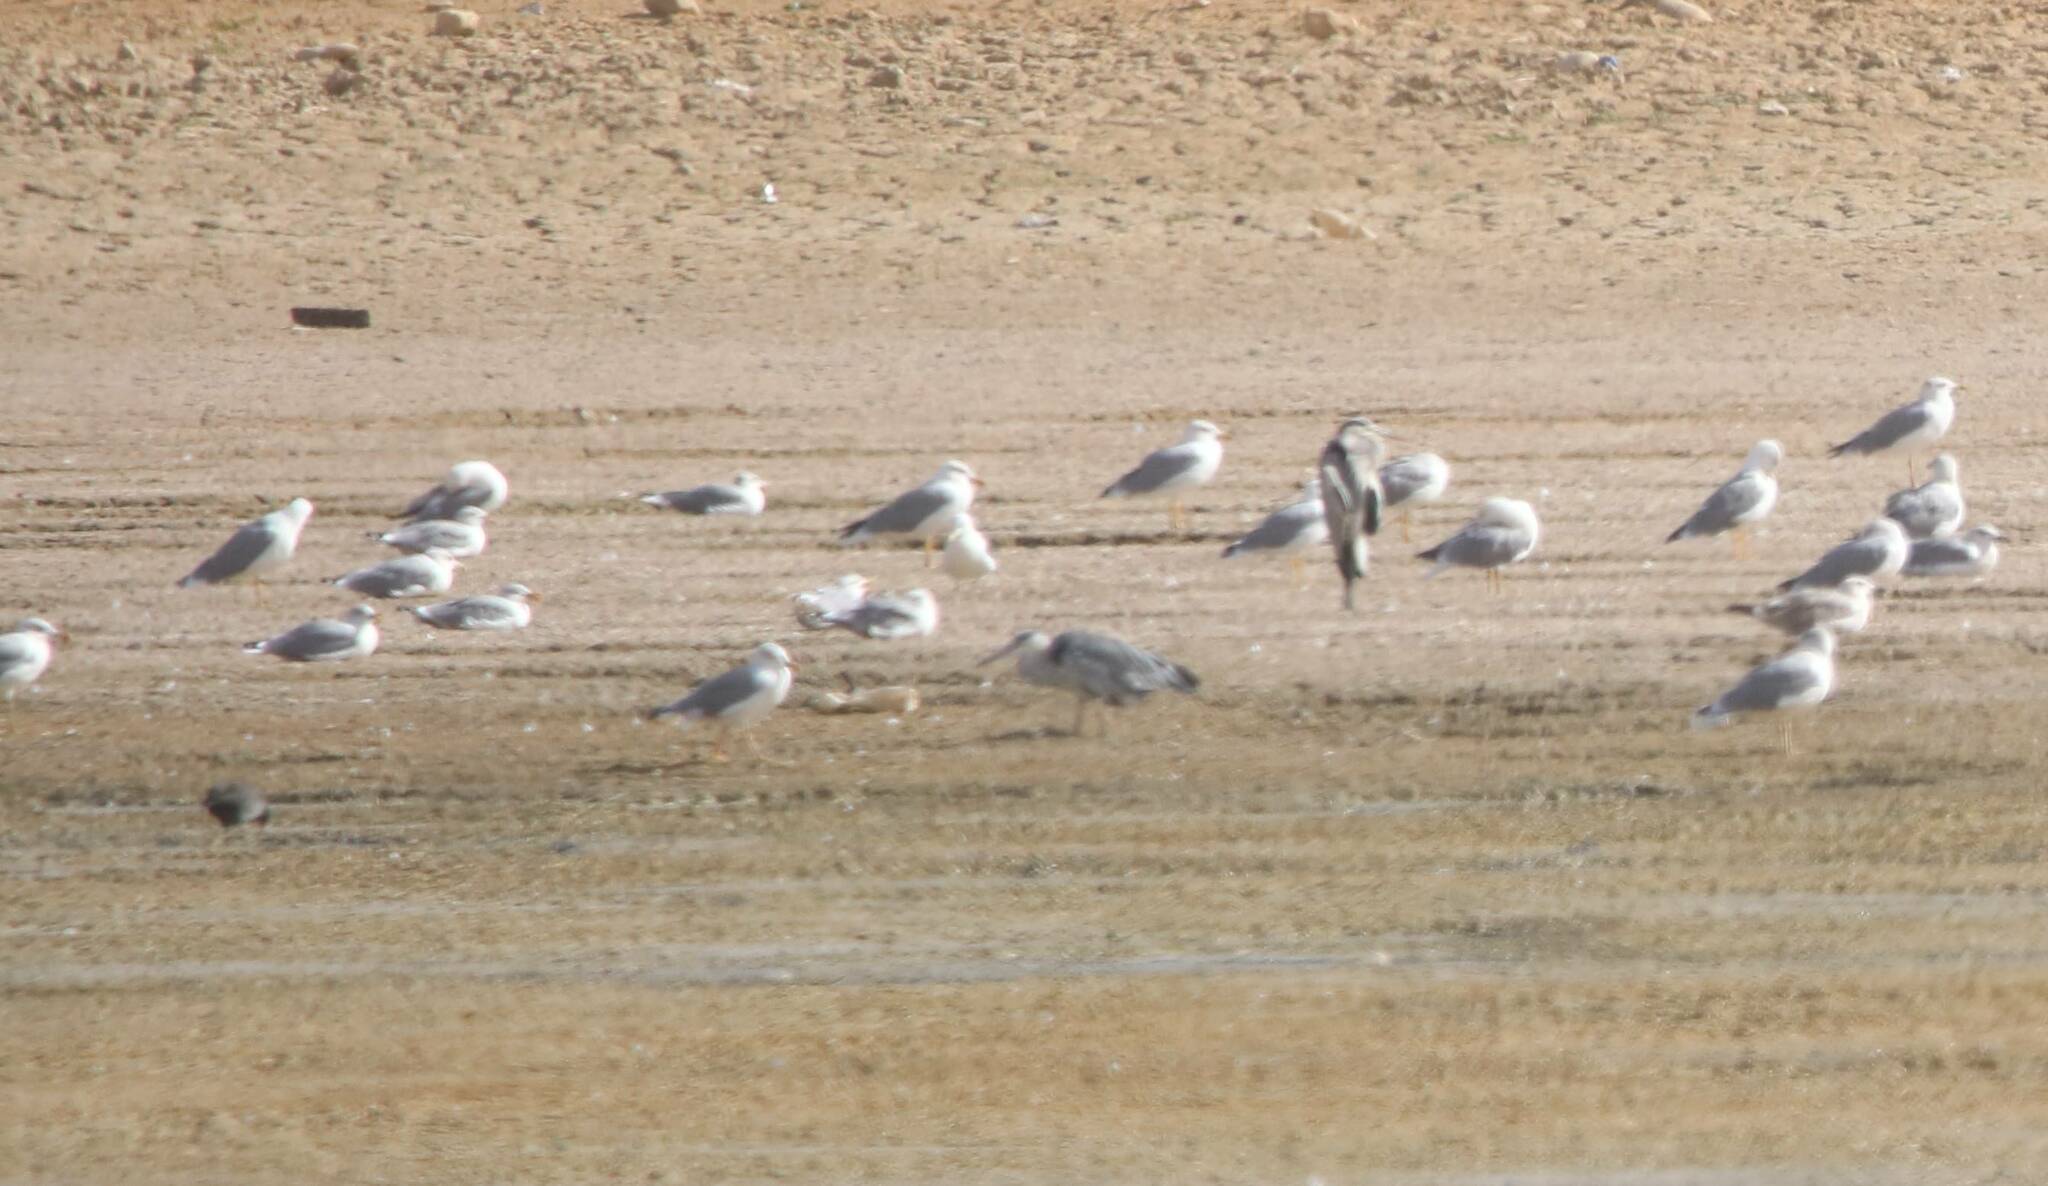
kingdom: Animalia
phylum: Chordata
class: Aves
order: Charadriiformes
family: Laridae
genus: Chroicocephalus
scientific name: Chroicocephalus ridibundus
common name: Black-headed gull
